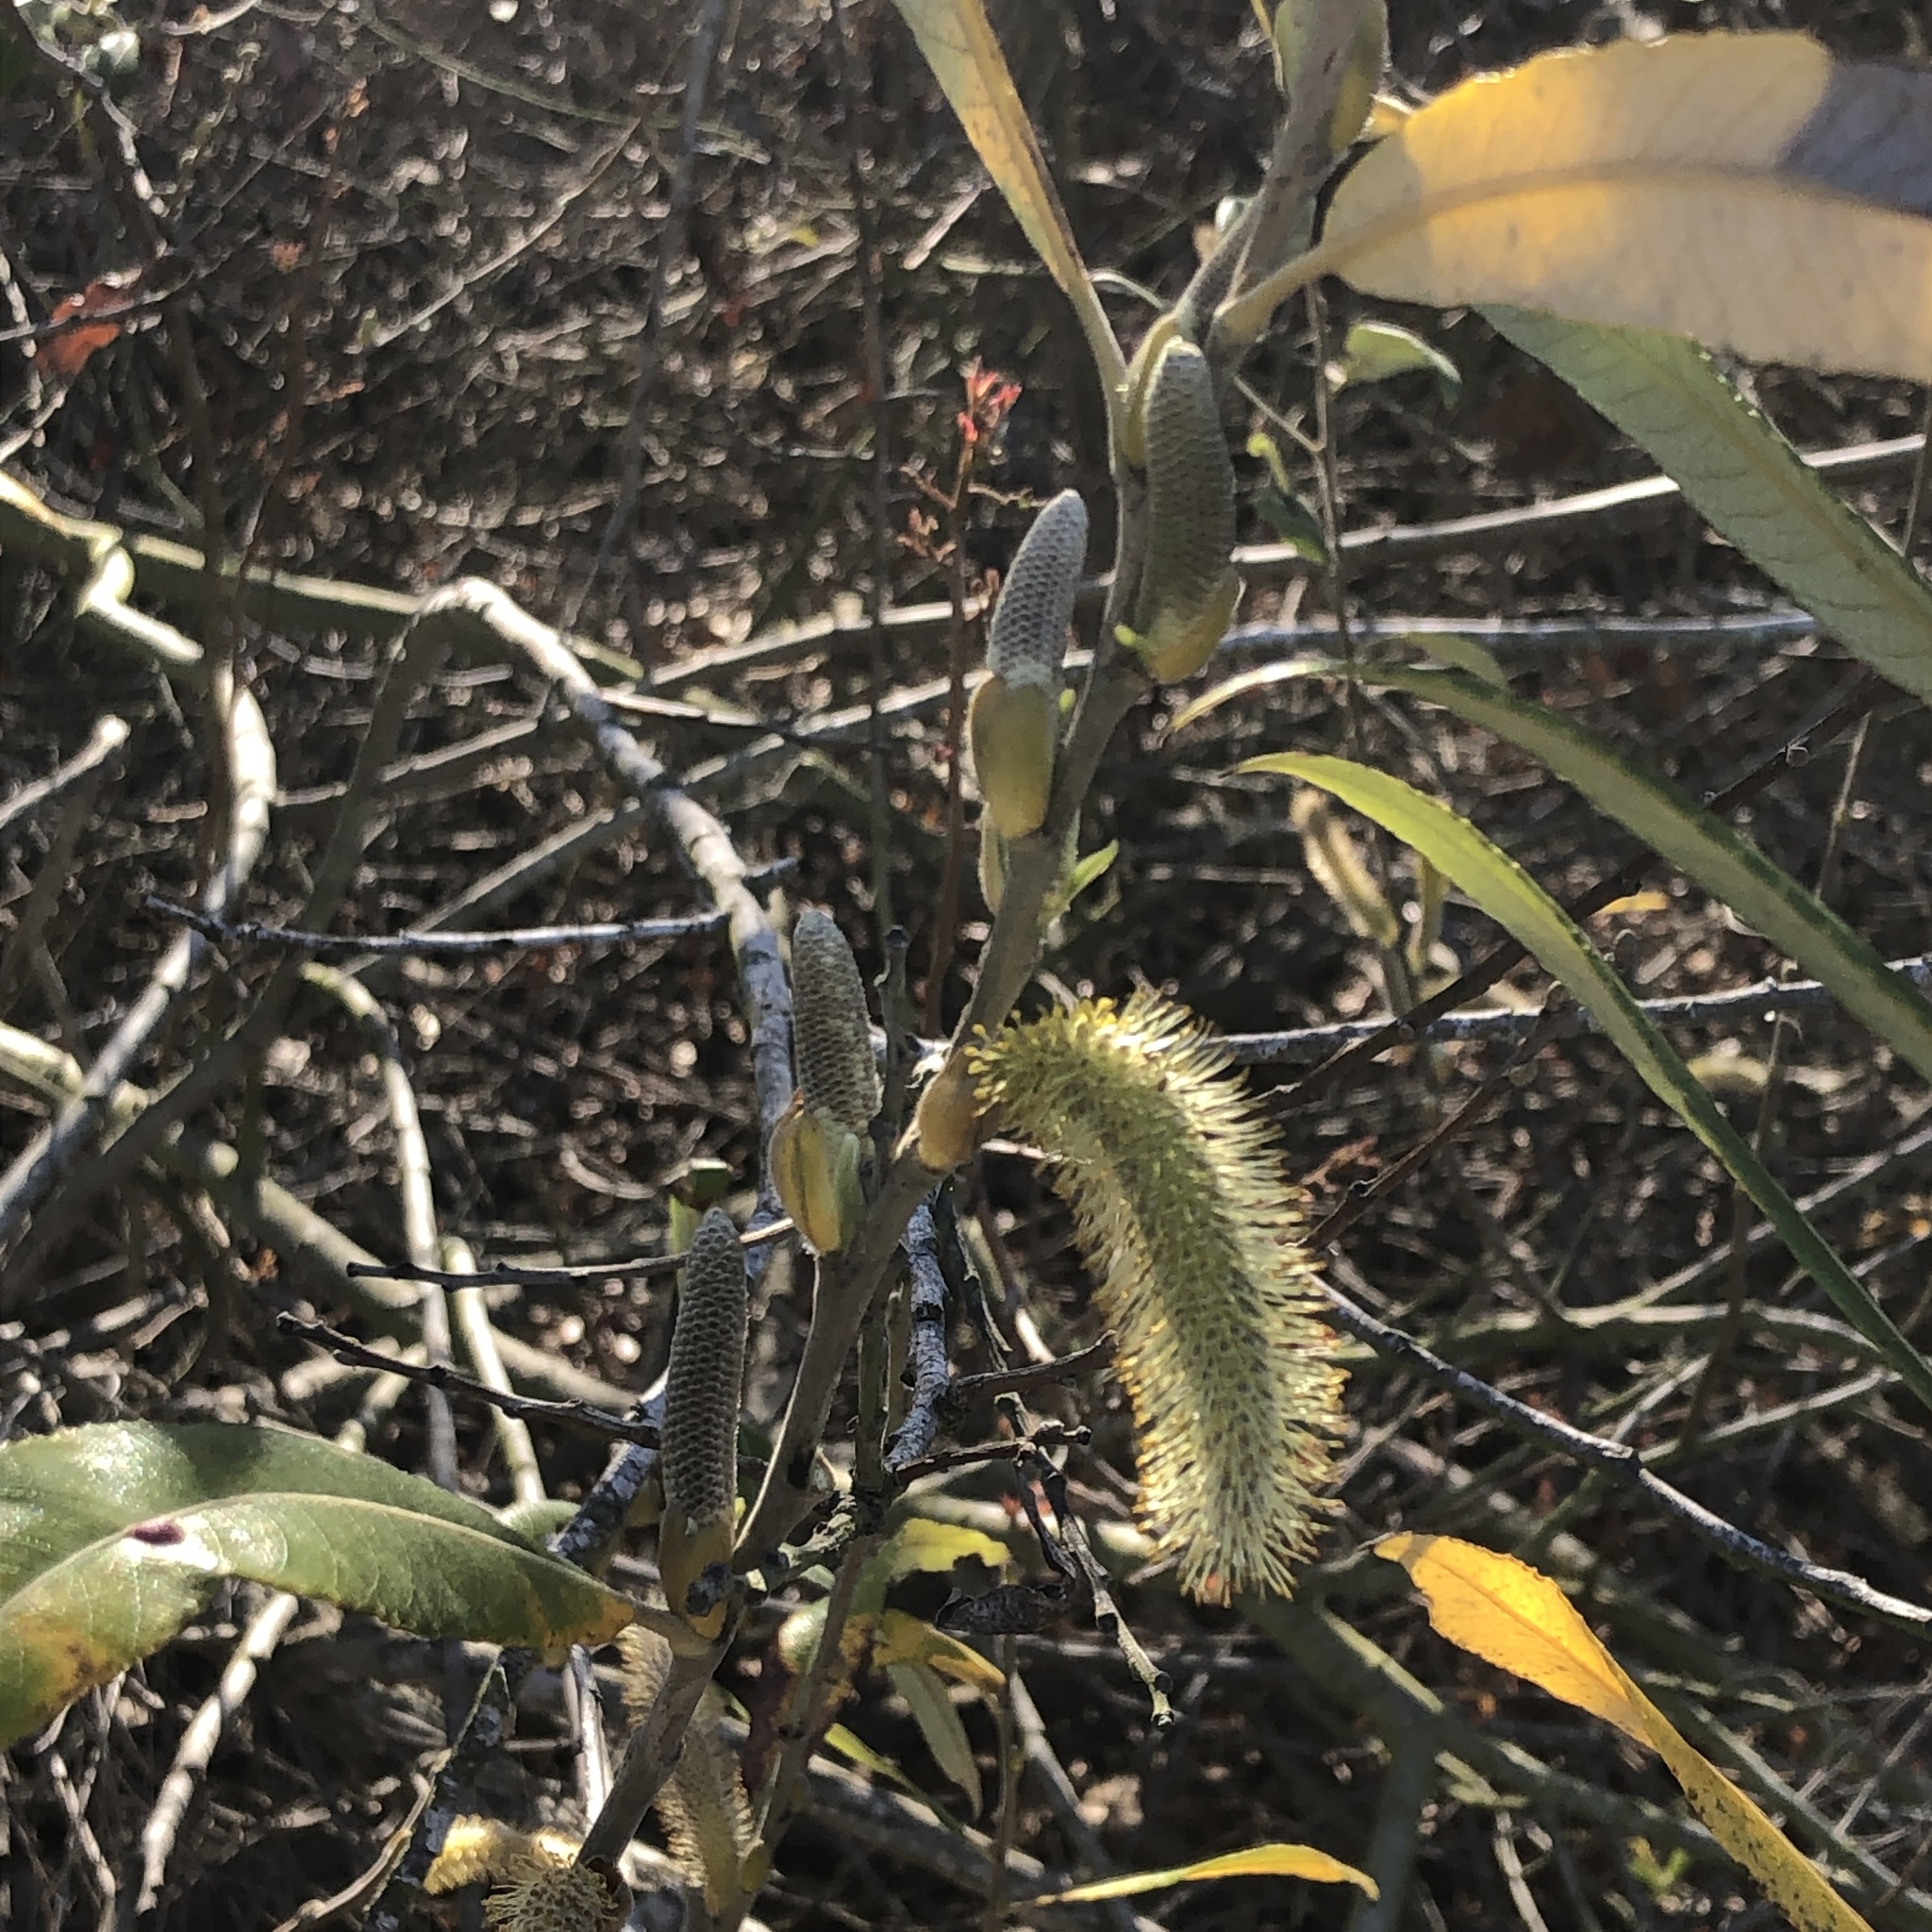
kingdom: Plantae
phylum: Tracheophyta
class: Magnoliopsida
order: Malpighiales
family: Salicaceae
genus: Salix
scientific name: Salix lasiolepis
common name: Arroyo willow
